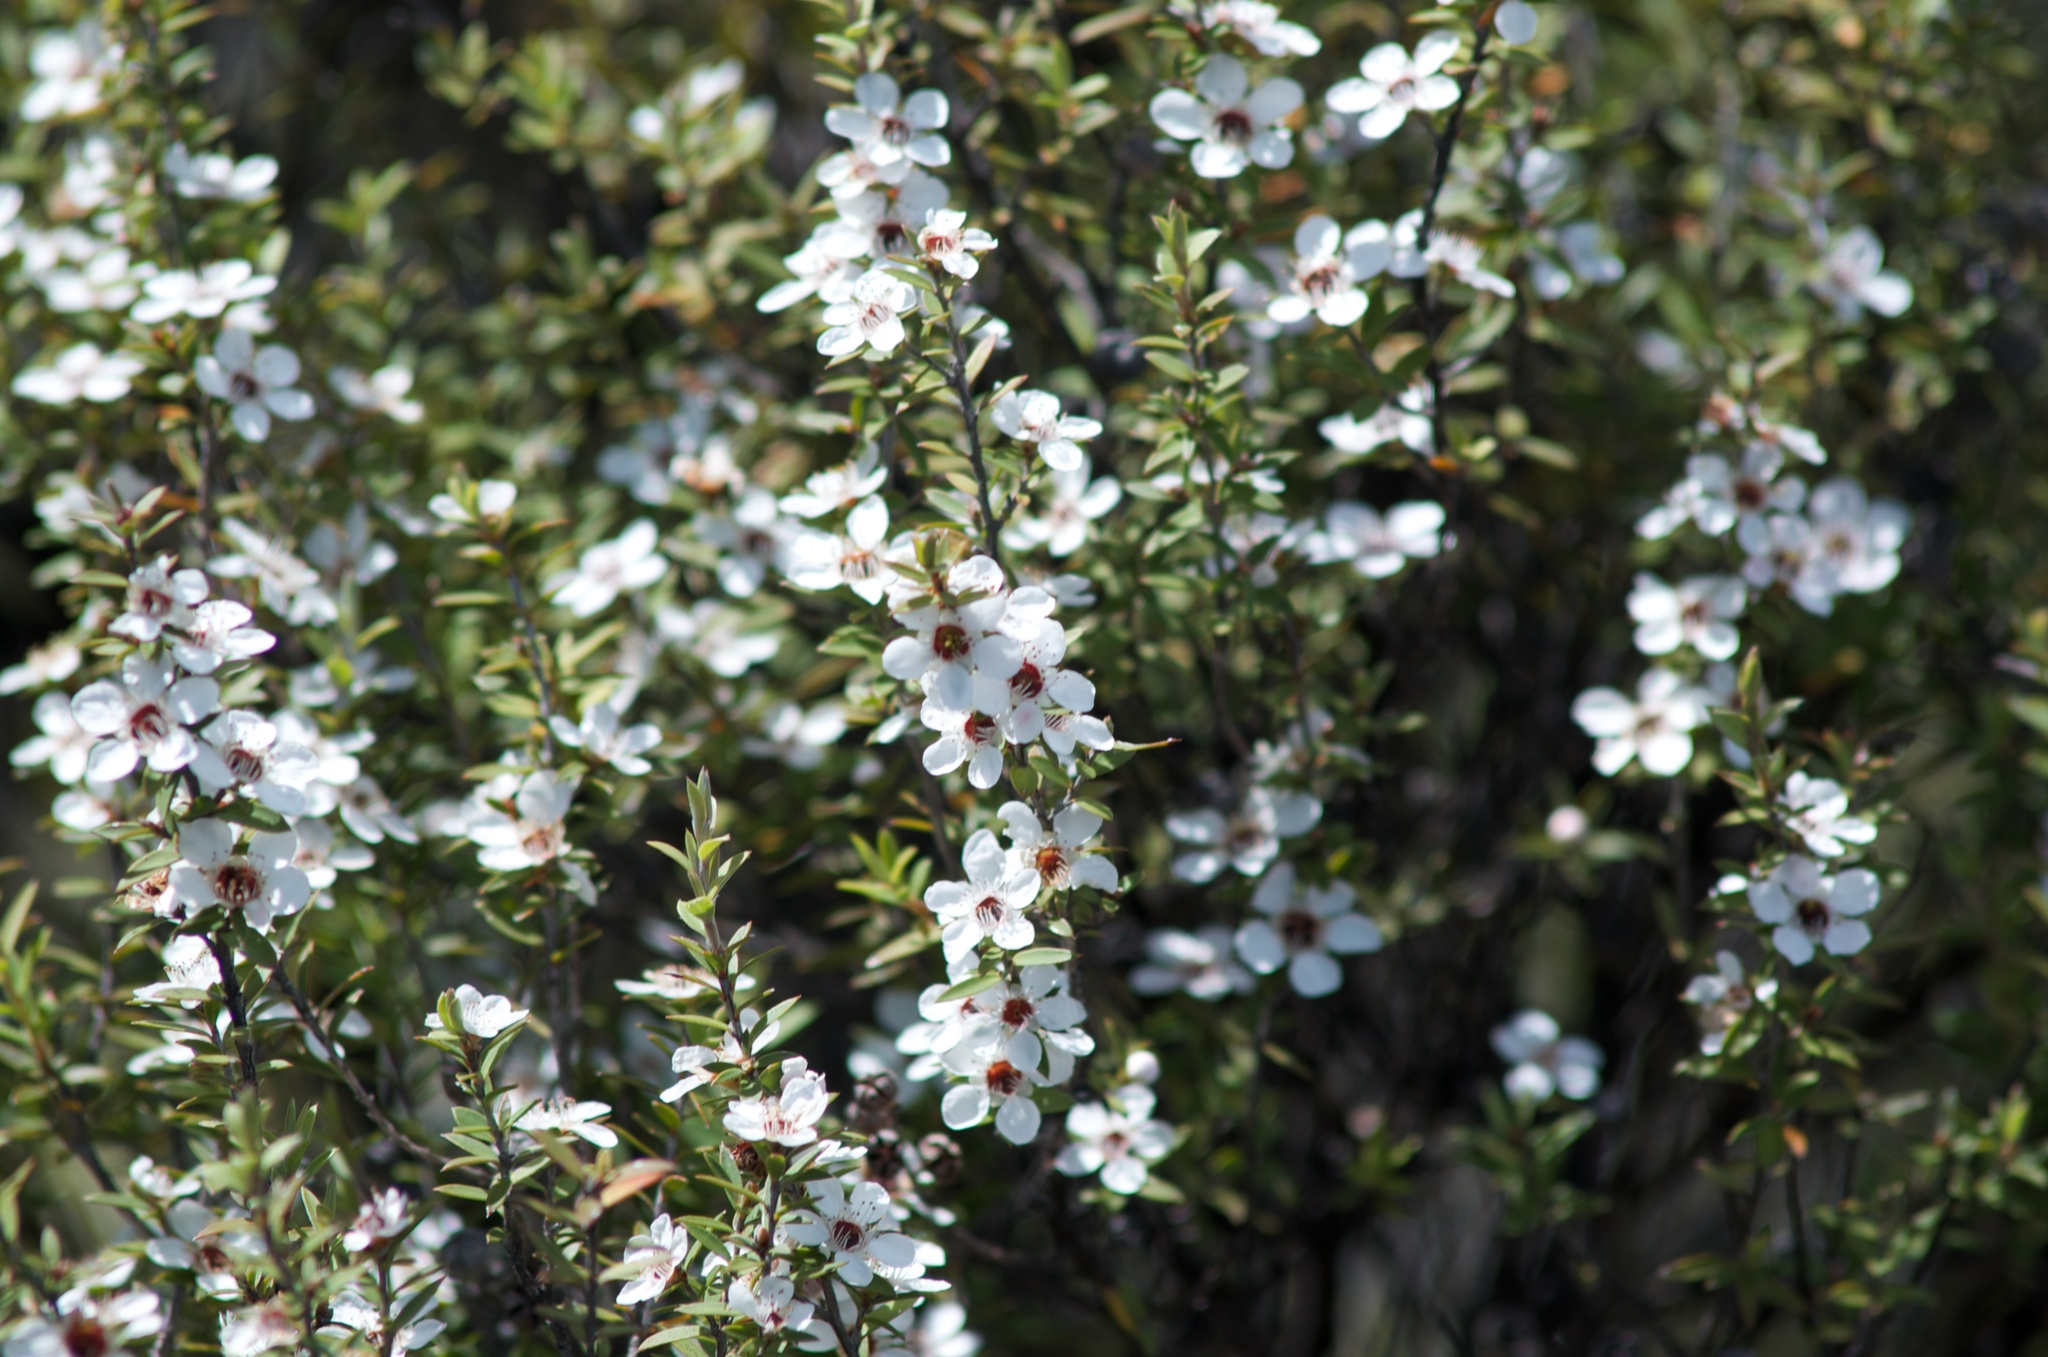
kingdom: Plantae
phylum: Tracheophyta
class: Magnoliopsida
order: Myrtales
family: Myrtaceae
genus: Leptospermum
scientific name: Leptospermum scoparium
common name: Broom tea-tree
